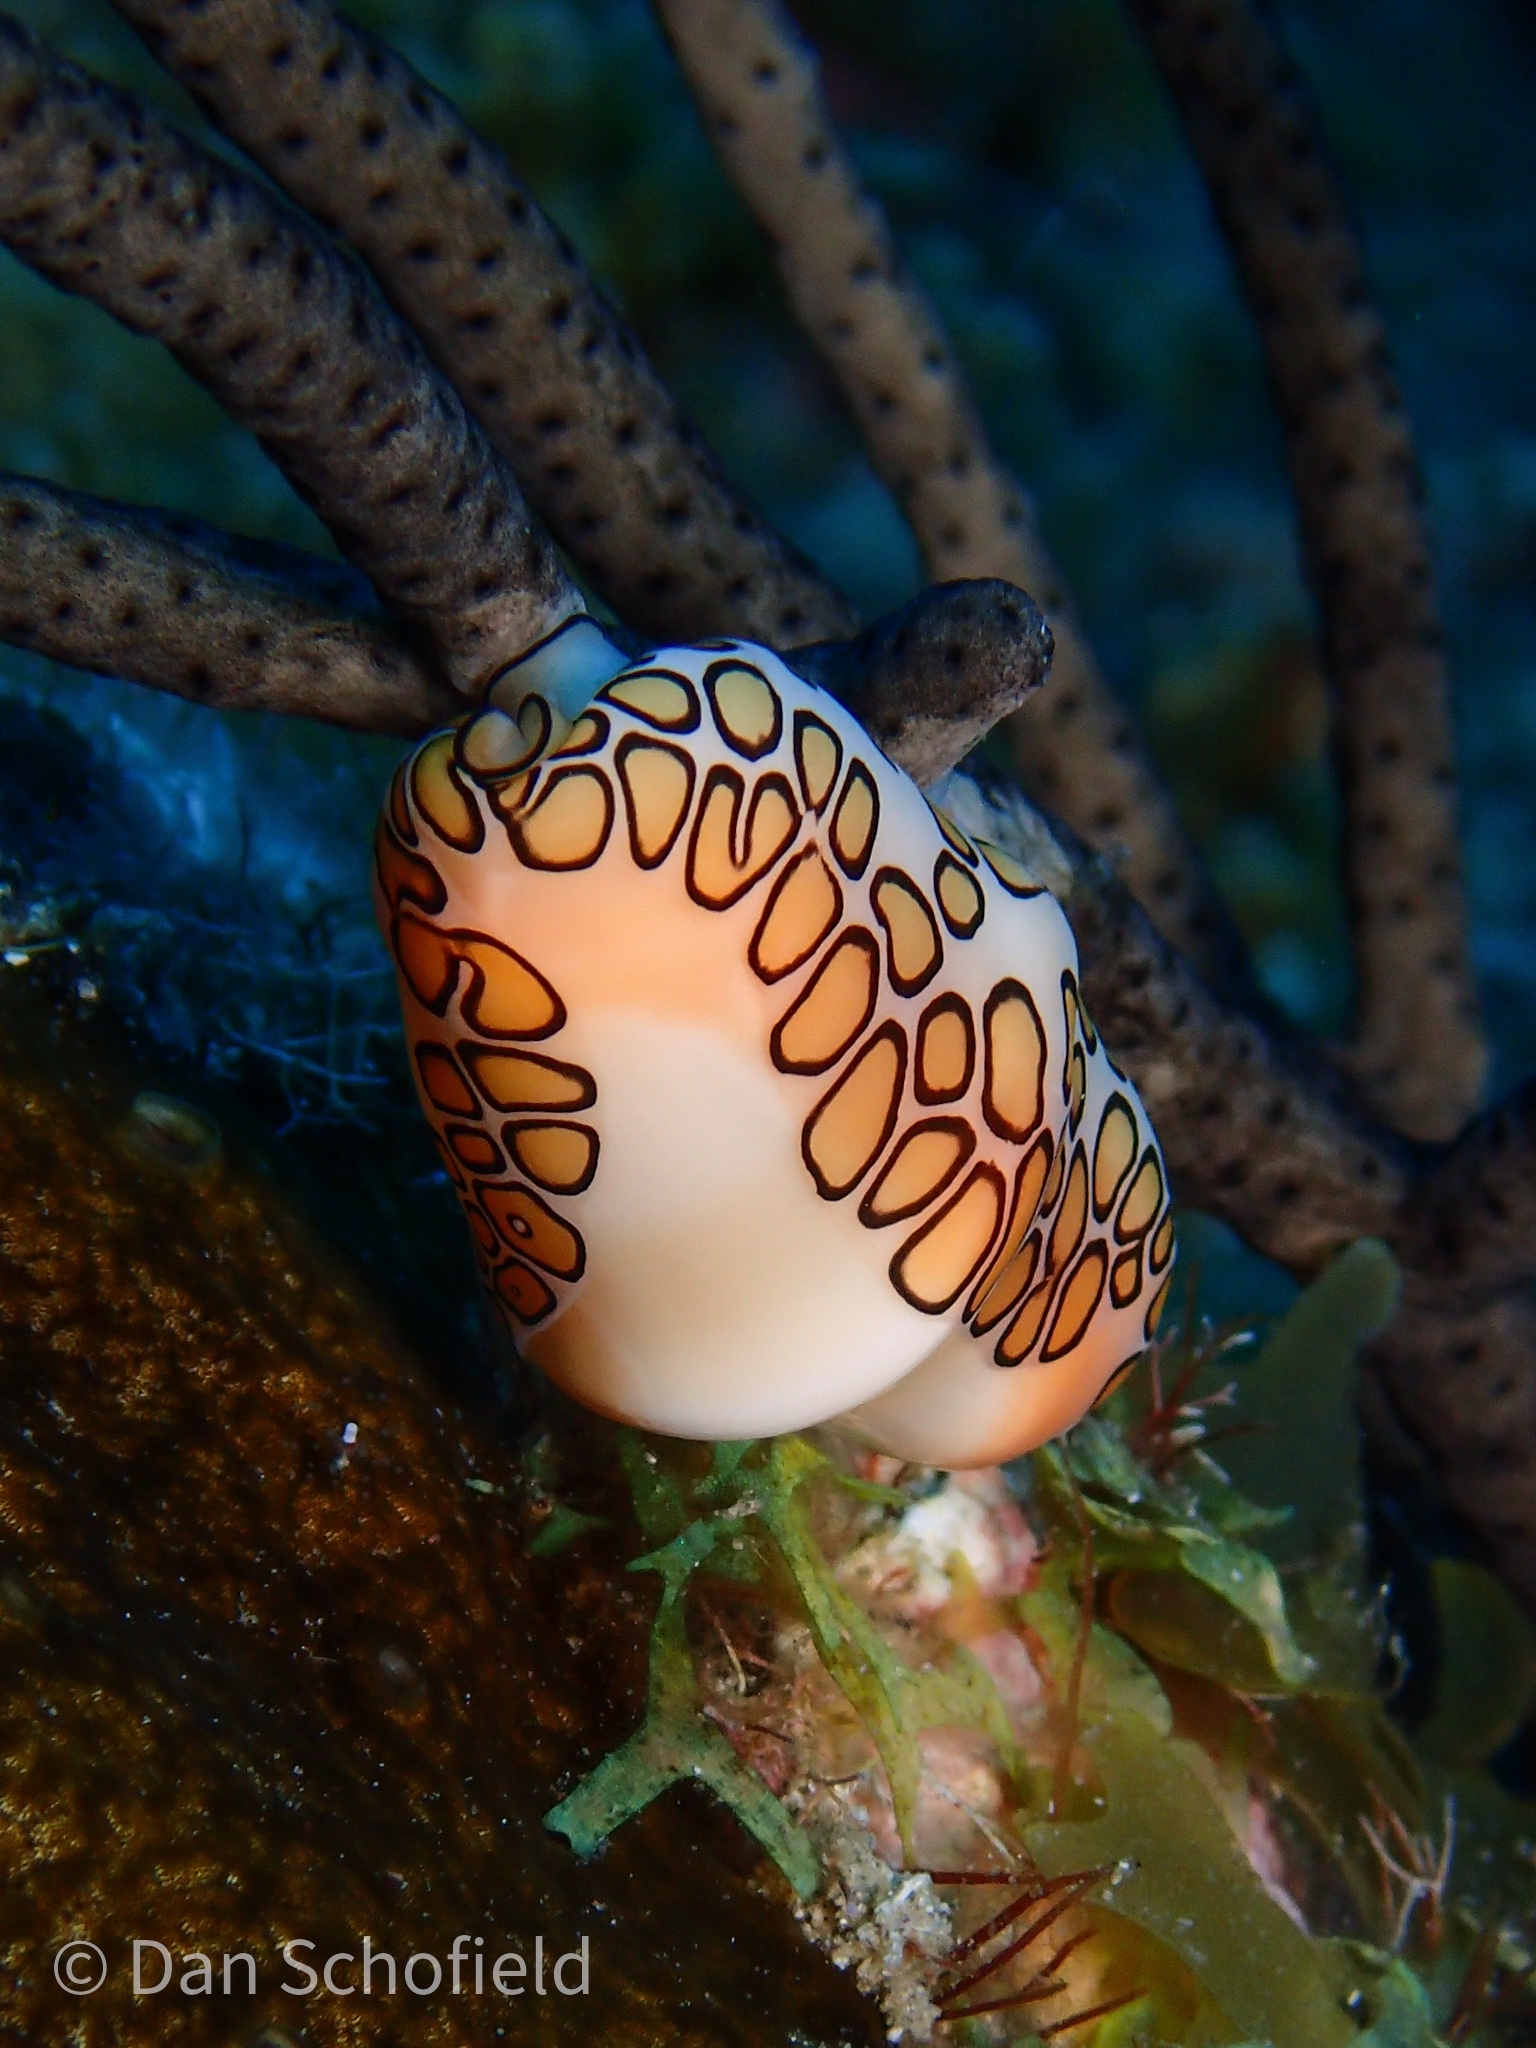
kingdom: Animalia
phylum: Mollusca
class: Gastropoda
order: Littorinimorpha
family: Ovulidae
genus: Cyphoma
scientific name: Cyphoma gibbosum
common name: Flamingo tongue
